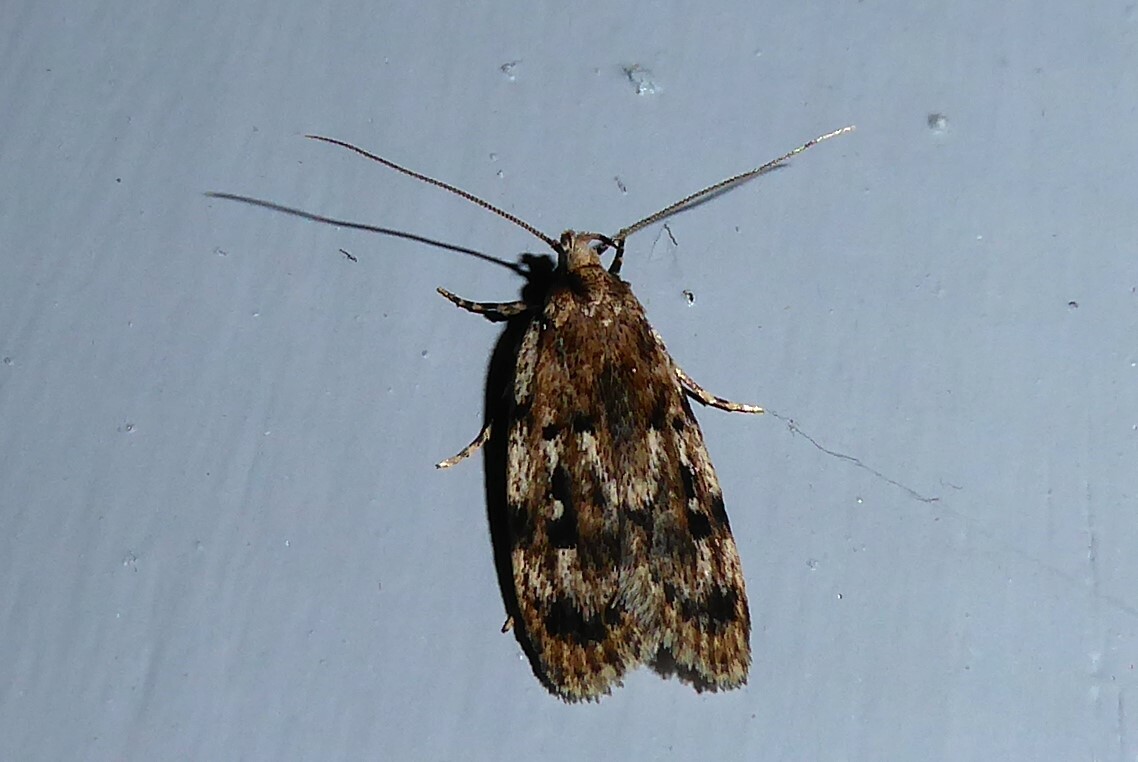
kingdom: Animalia
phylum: Arthropoda
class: Insecta
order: Lepidoptera
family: Oecophoridae
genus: Barea
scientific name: Barea exarcha
